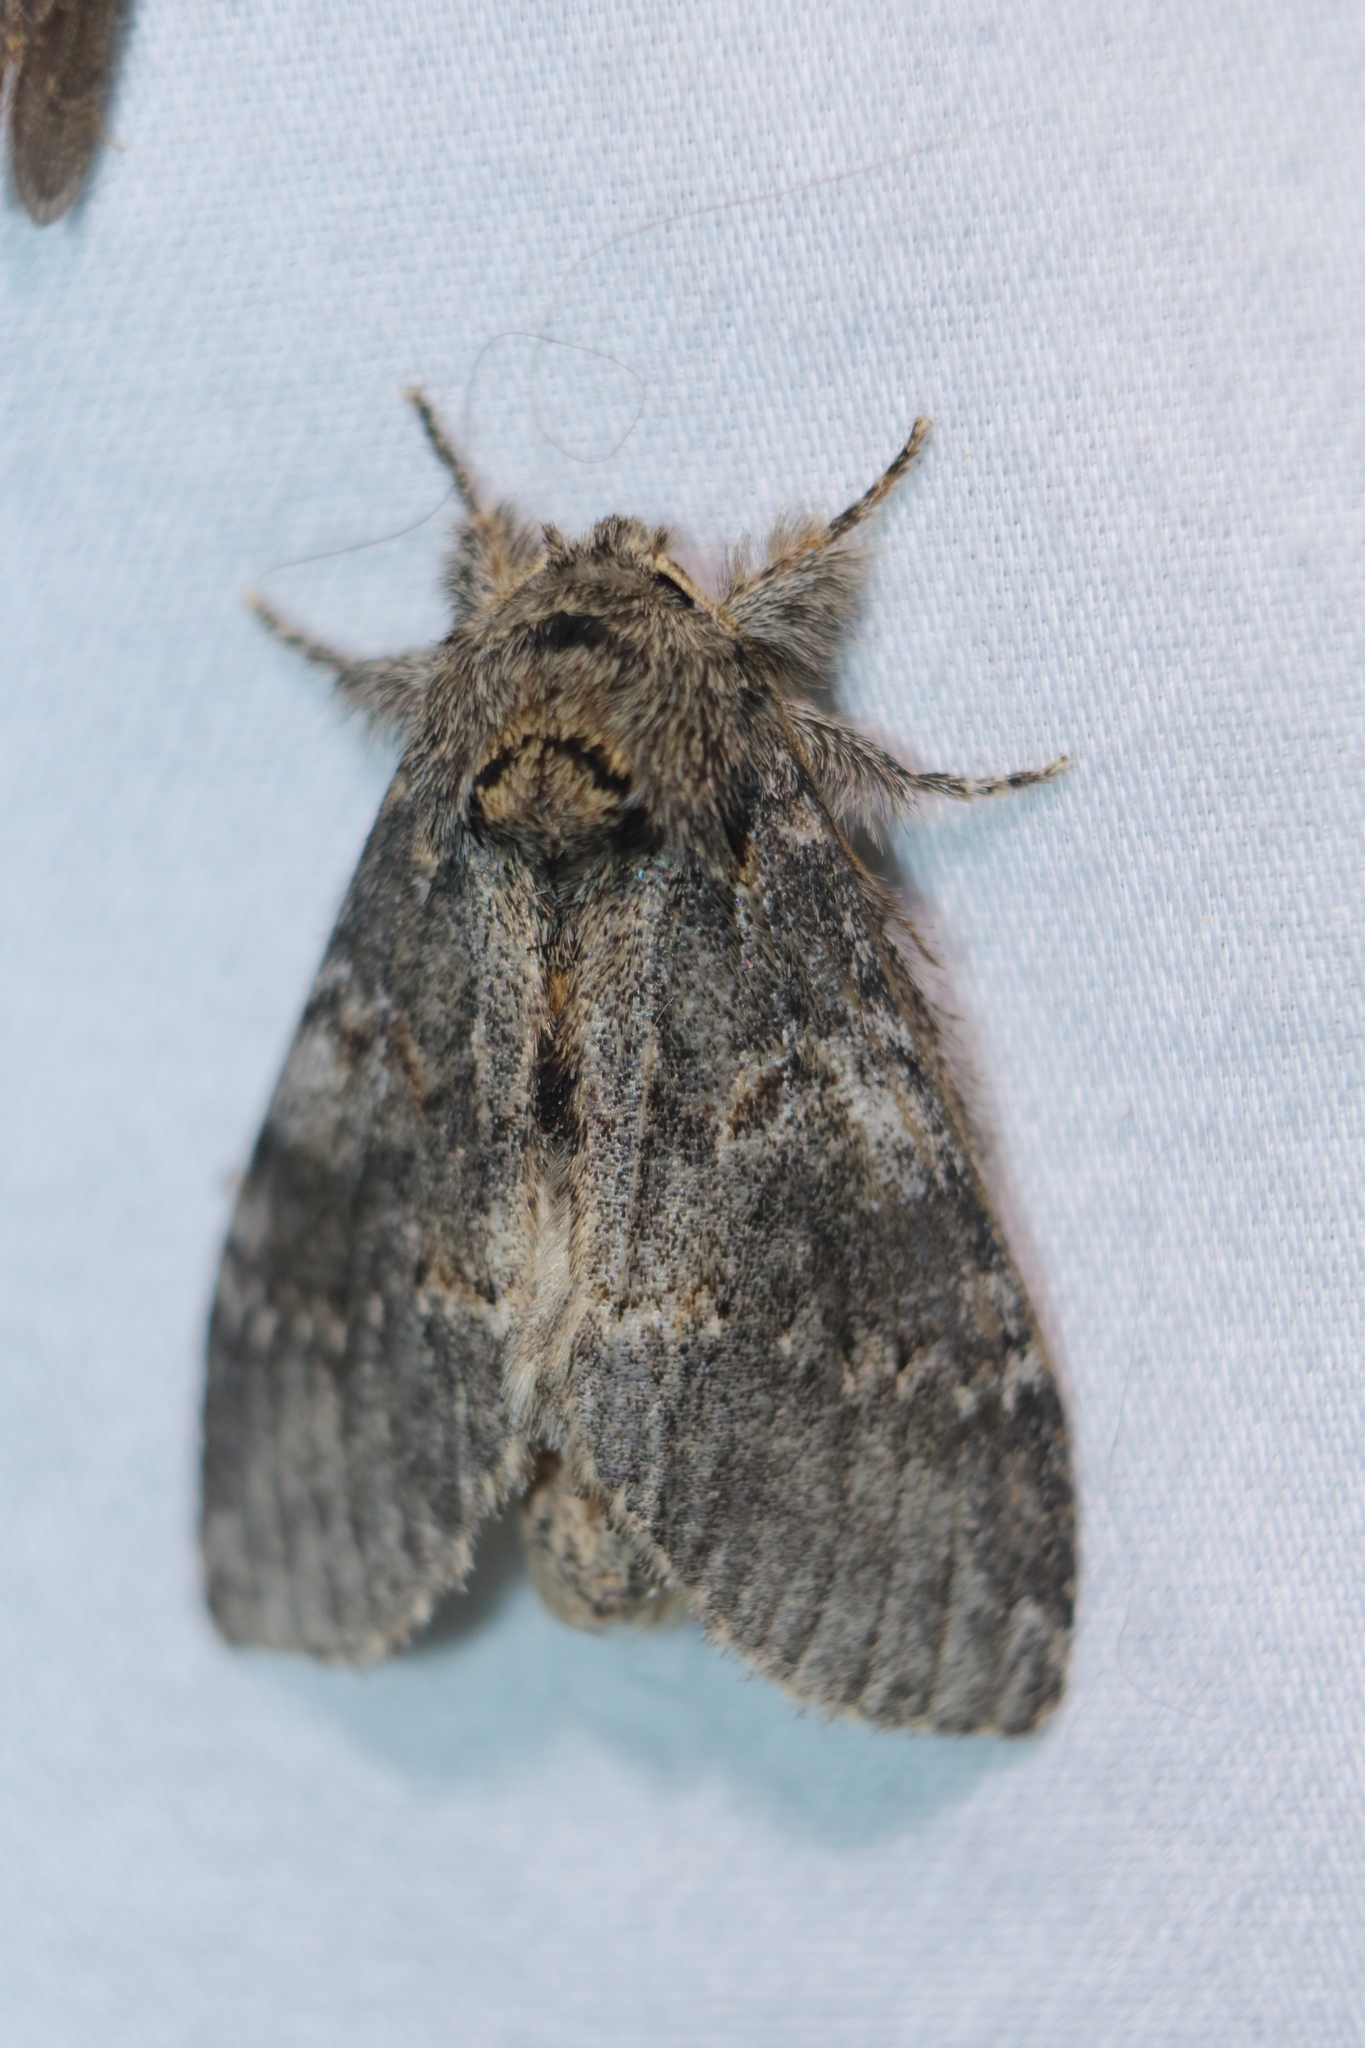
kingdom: Animalia
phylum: Arthropoda
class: Insecta
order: Lepidoptera
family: Notodontidae
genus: Peridea
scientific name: Peridea angulosa
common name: Angulose prominent
